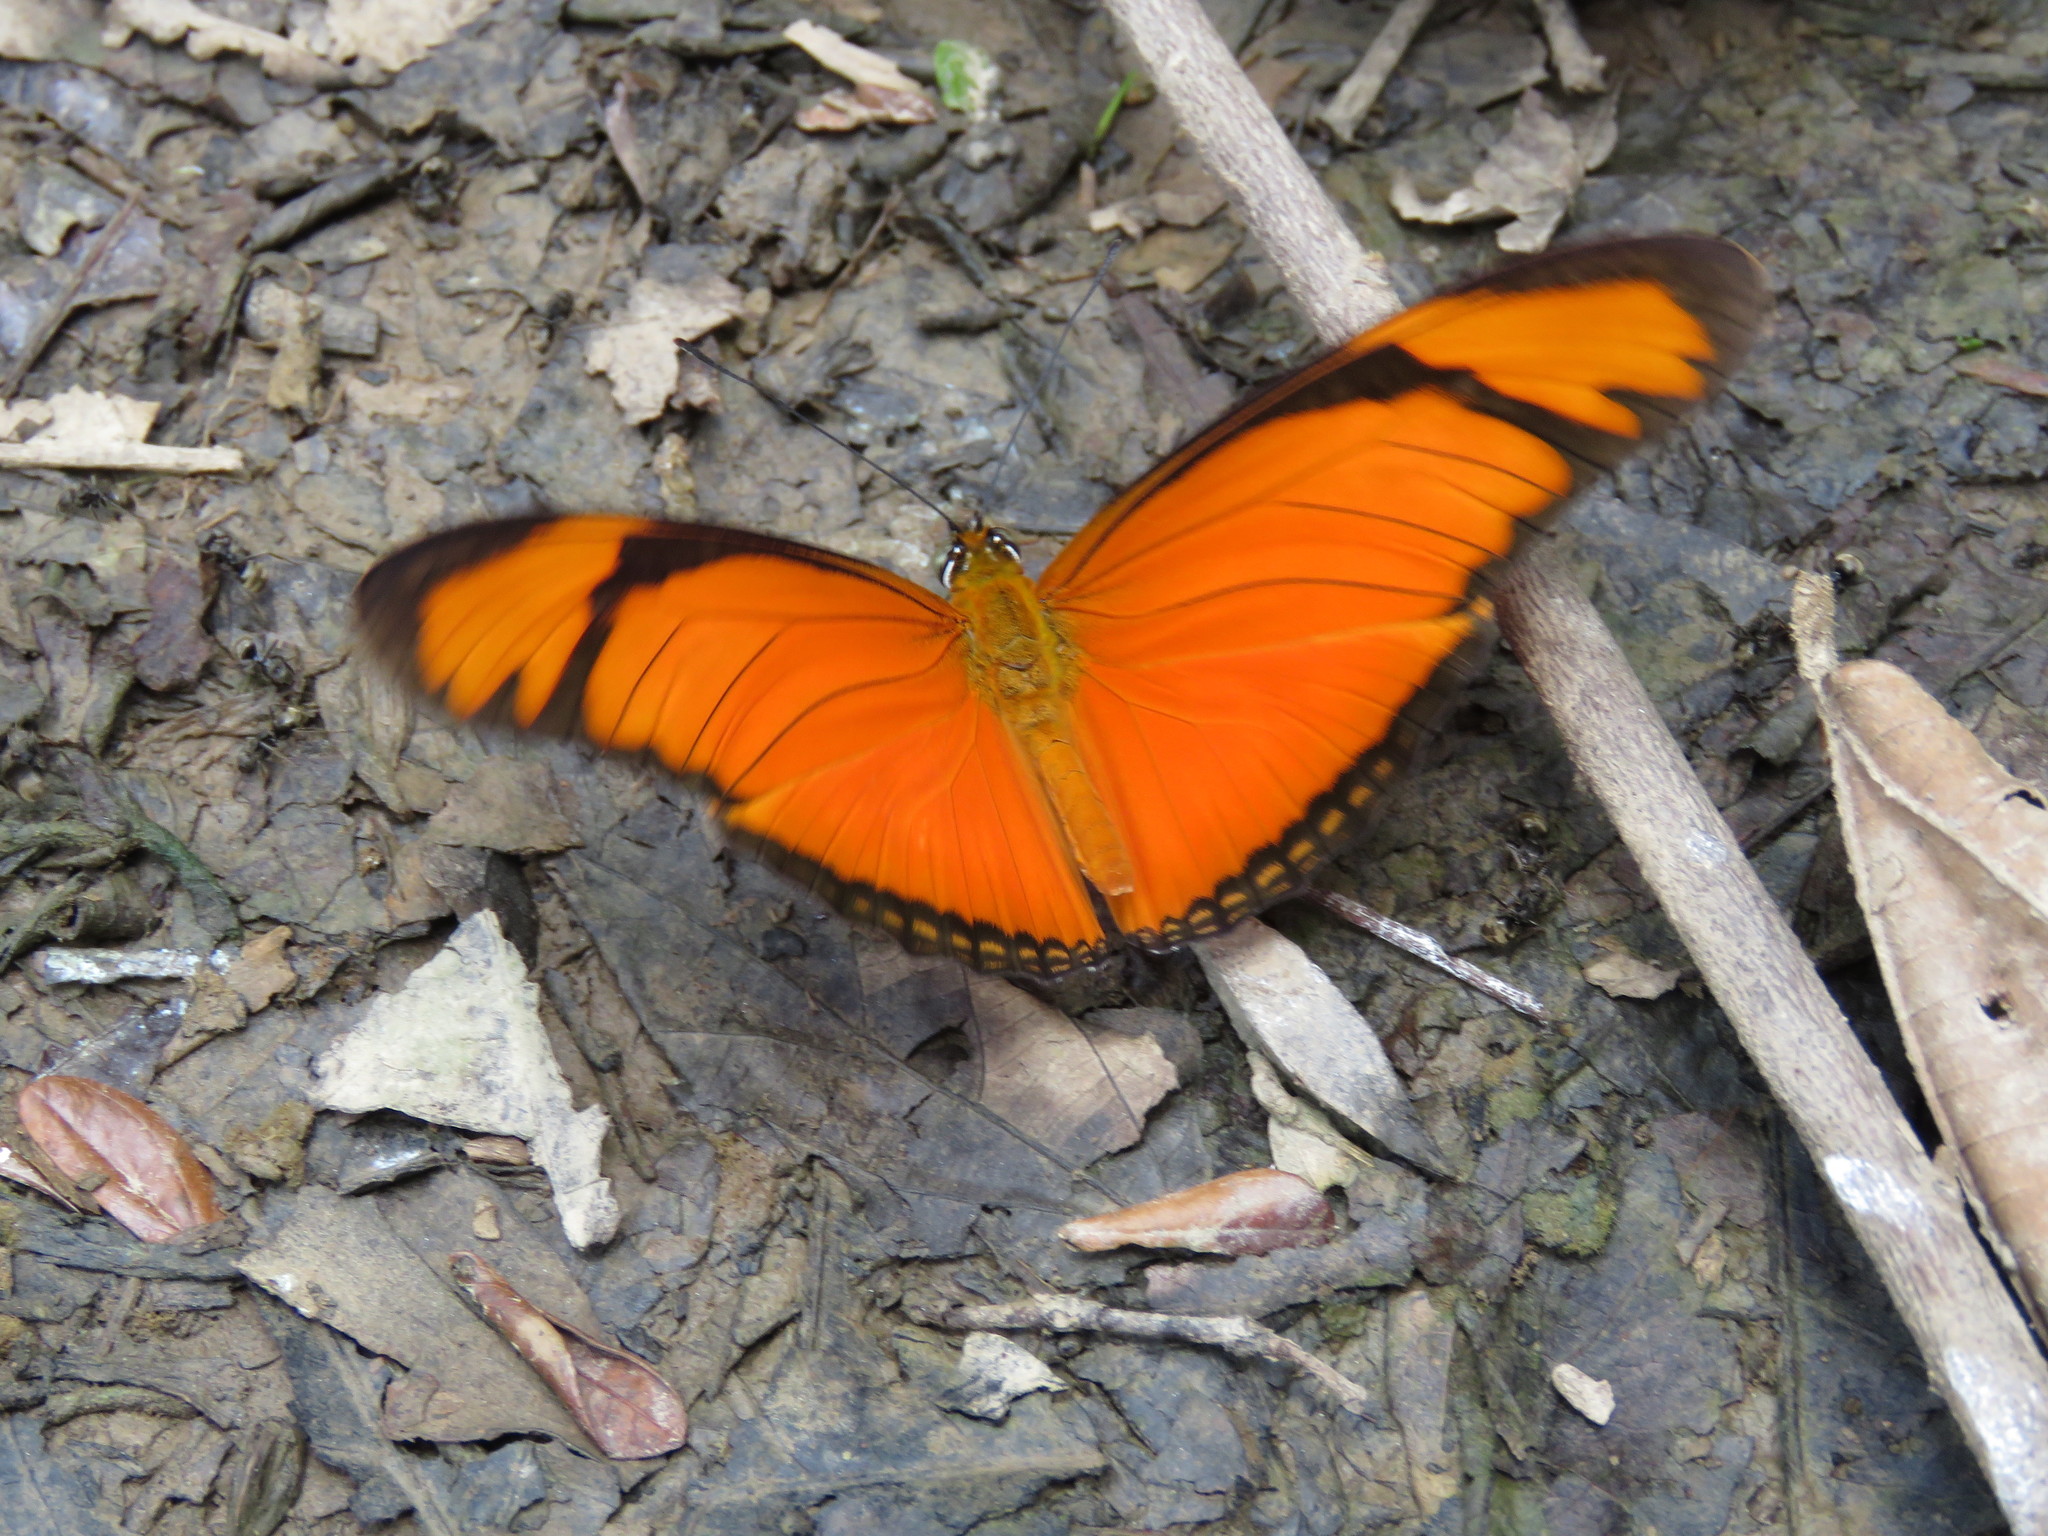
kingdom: Animalia
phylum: Arthropoda
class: Insecta
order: Lepidoptera
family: Nymphalidae
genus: Dryas
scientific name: Dryas iulia
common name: Flambeau
